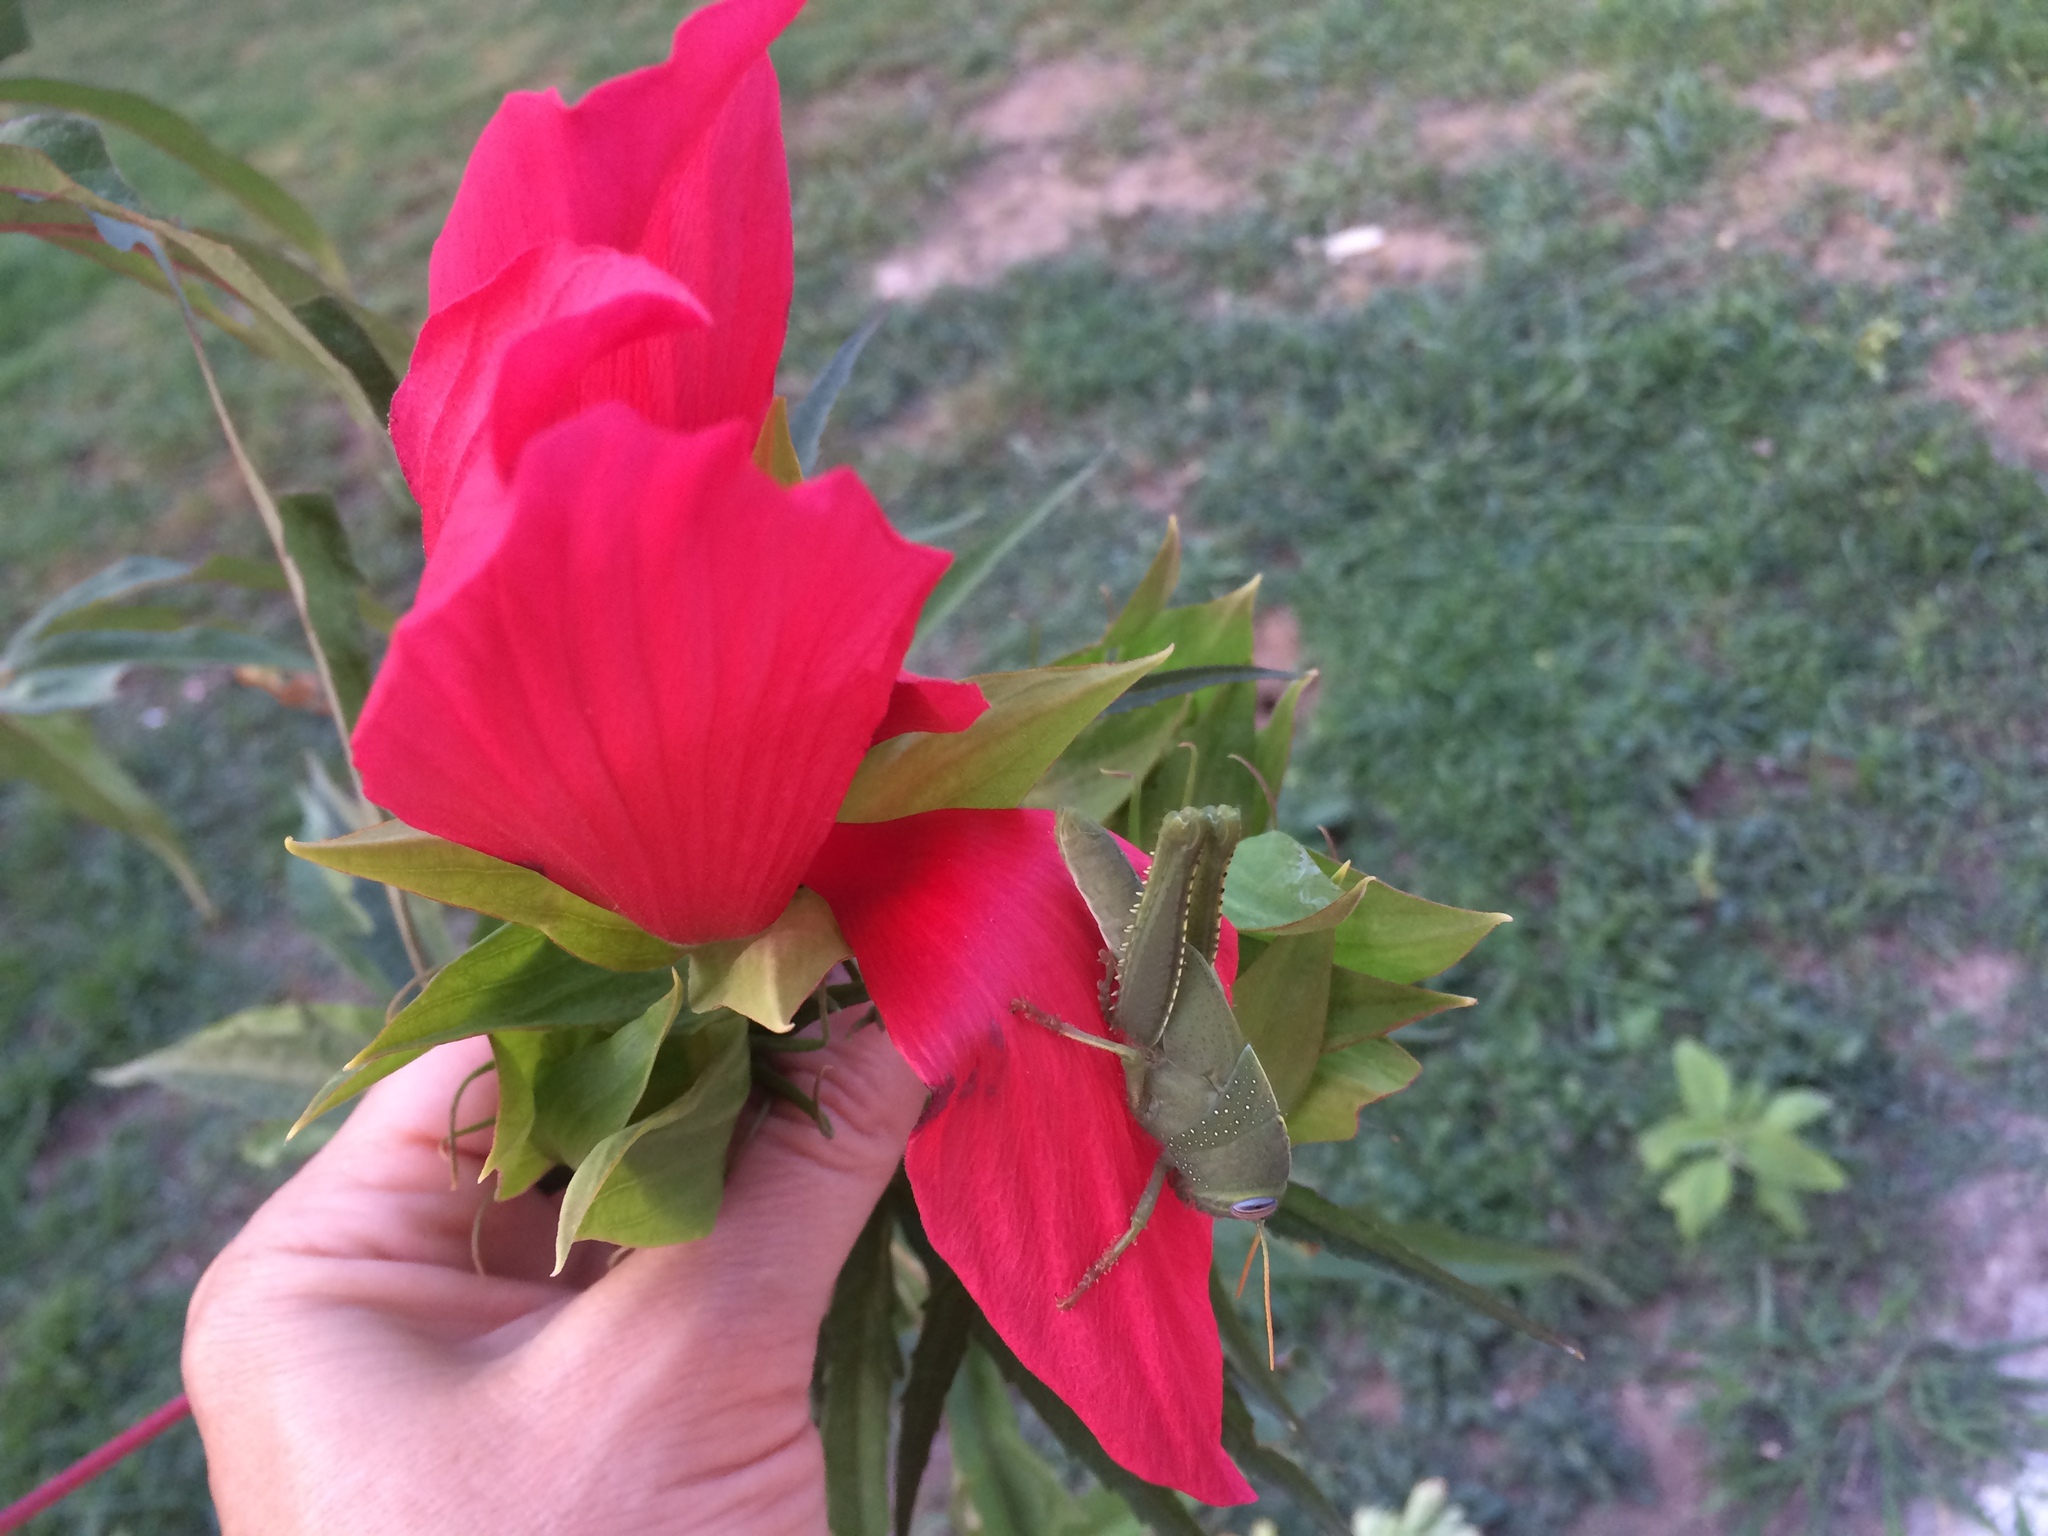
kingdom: Animalia
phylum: Arthropoda
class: Insecta
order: Orthoptera
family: Acrididae
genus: Anacridium
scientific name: Anacridium aegyptium
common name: Egyptian grasshopper
